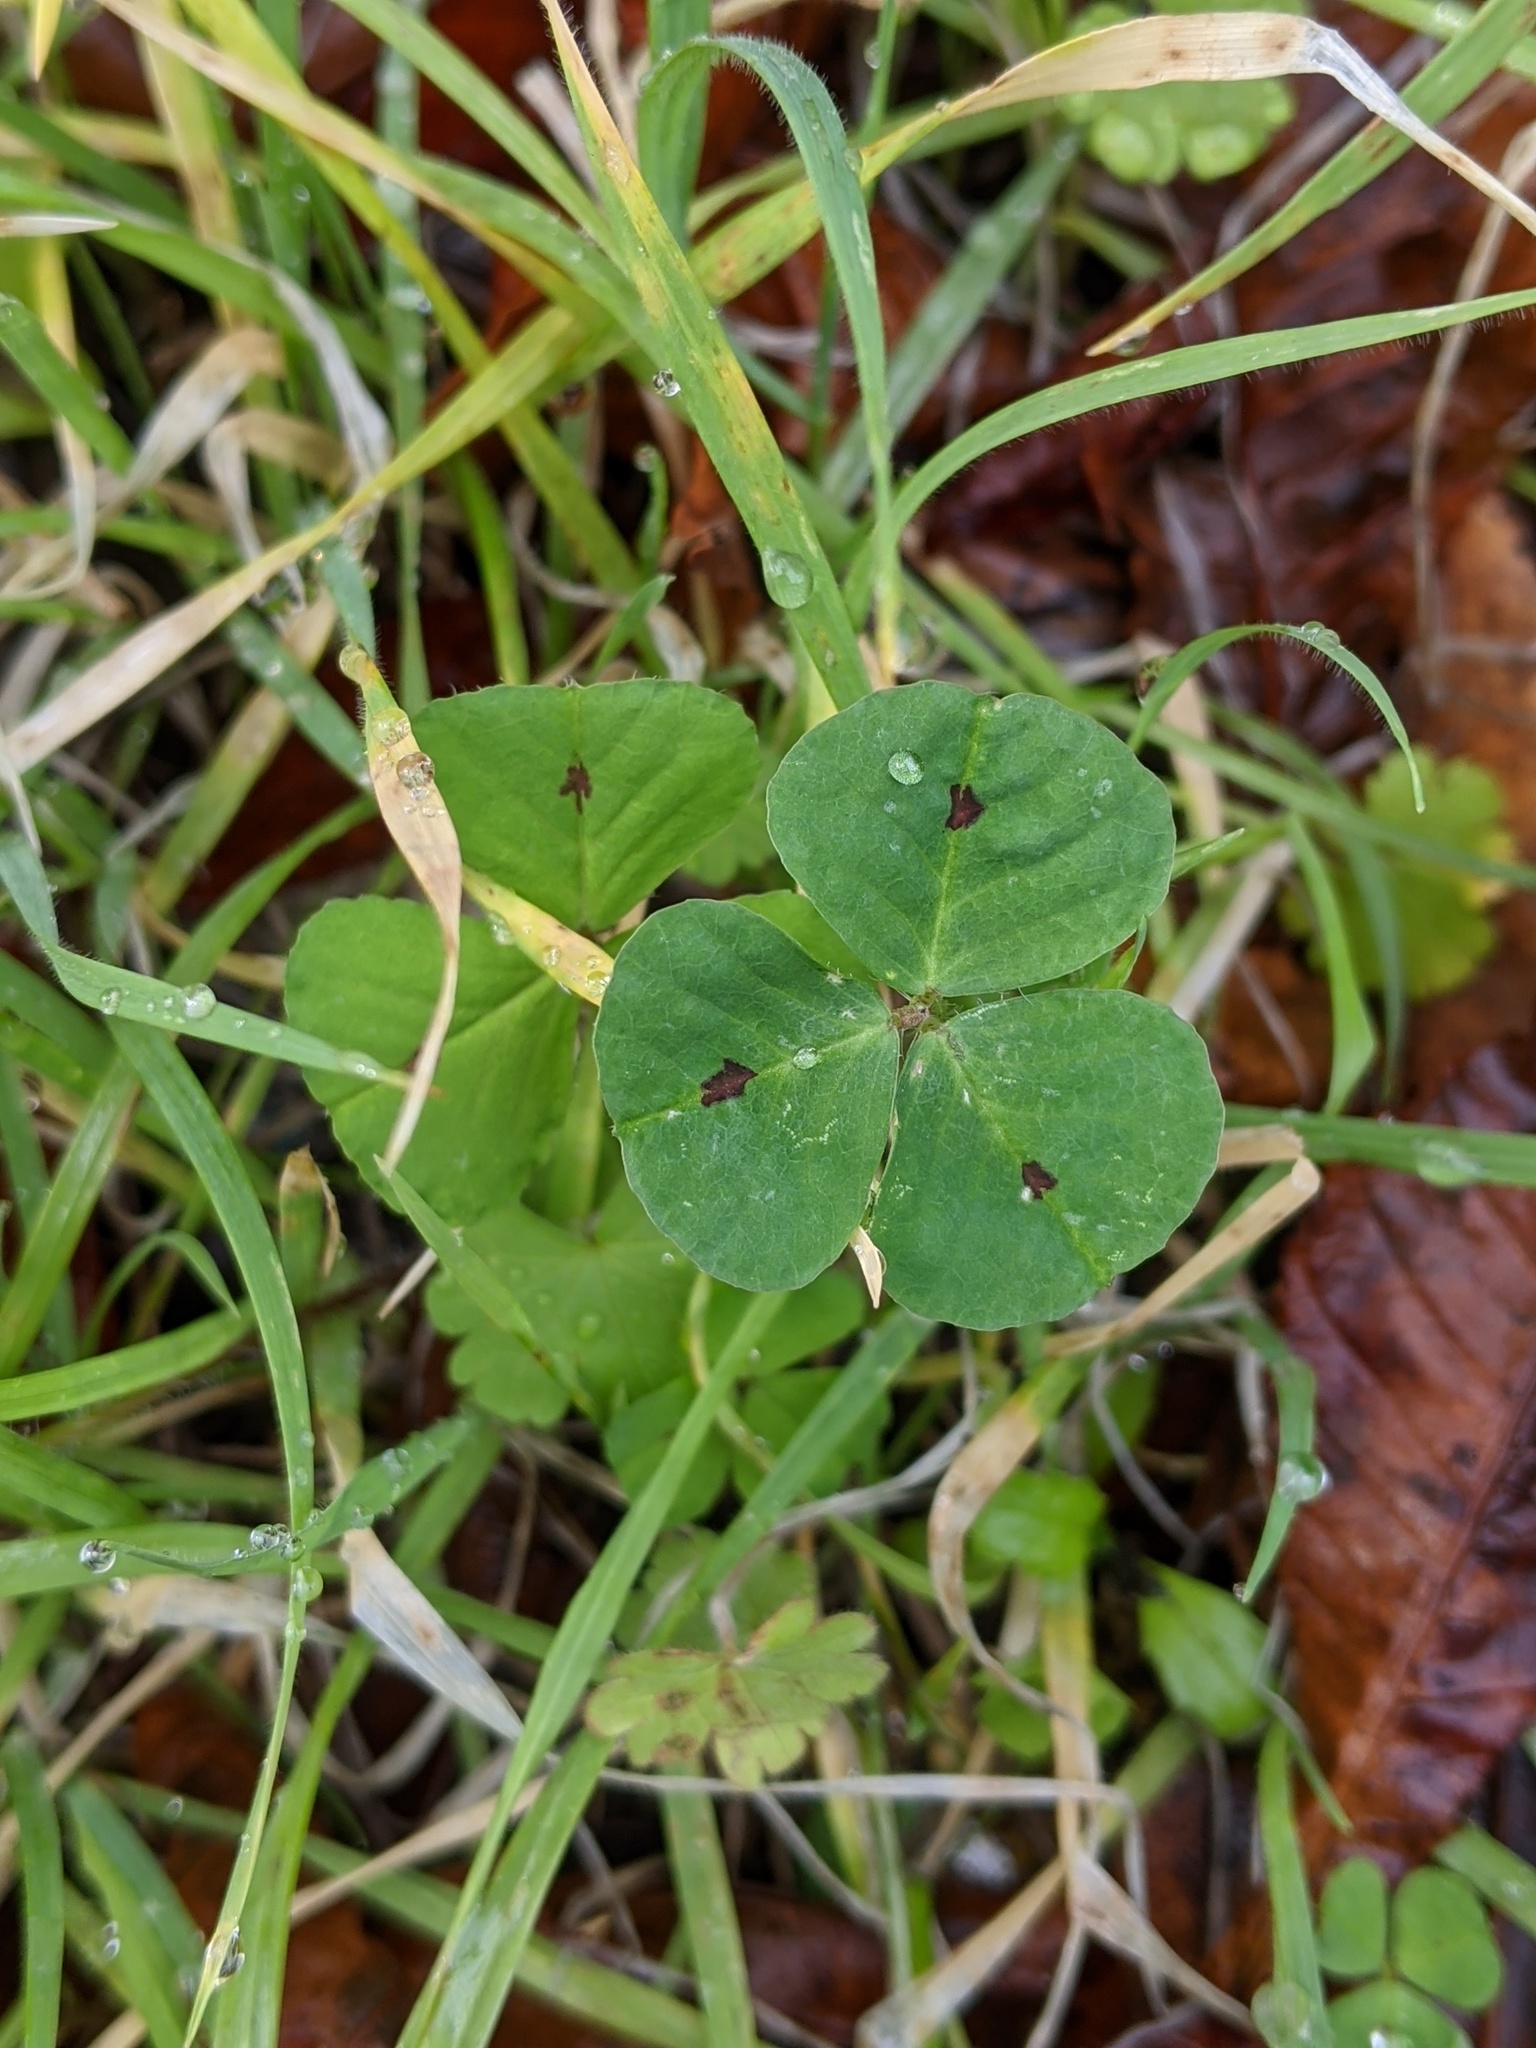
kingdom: Plantae
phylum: Tracheophyta
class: Magnoliopsida
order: Fabales
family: Fabaceae
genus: Medicago
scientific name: Medicago arabica
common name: Spotted medick
